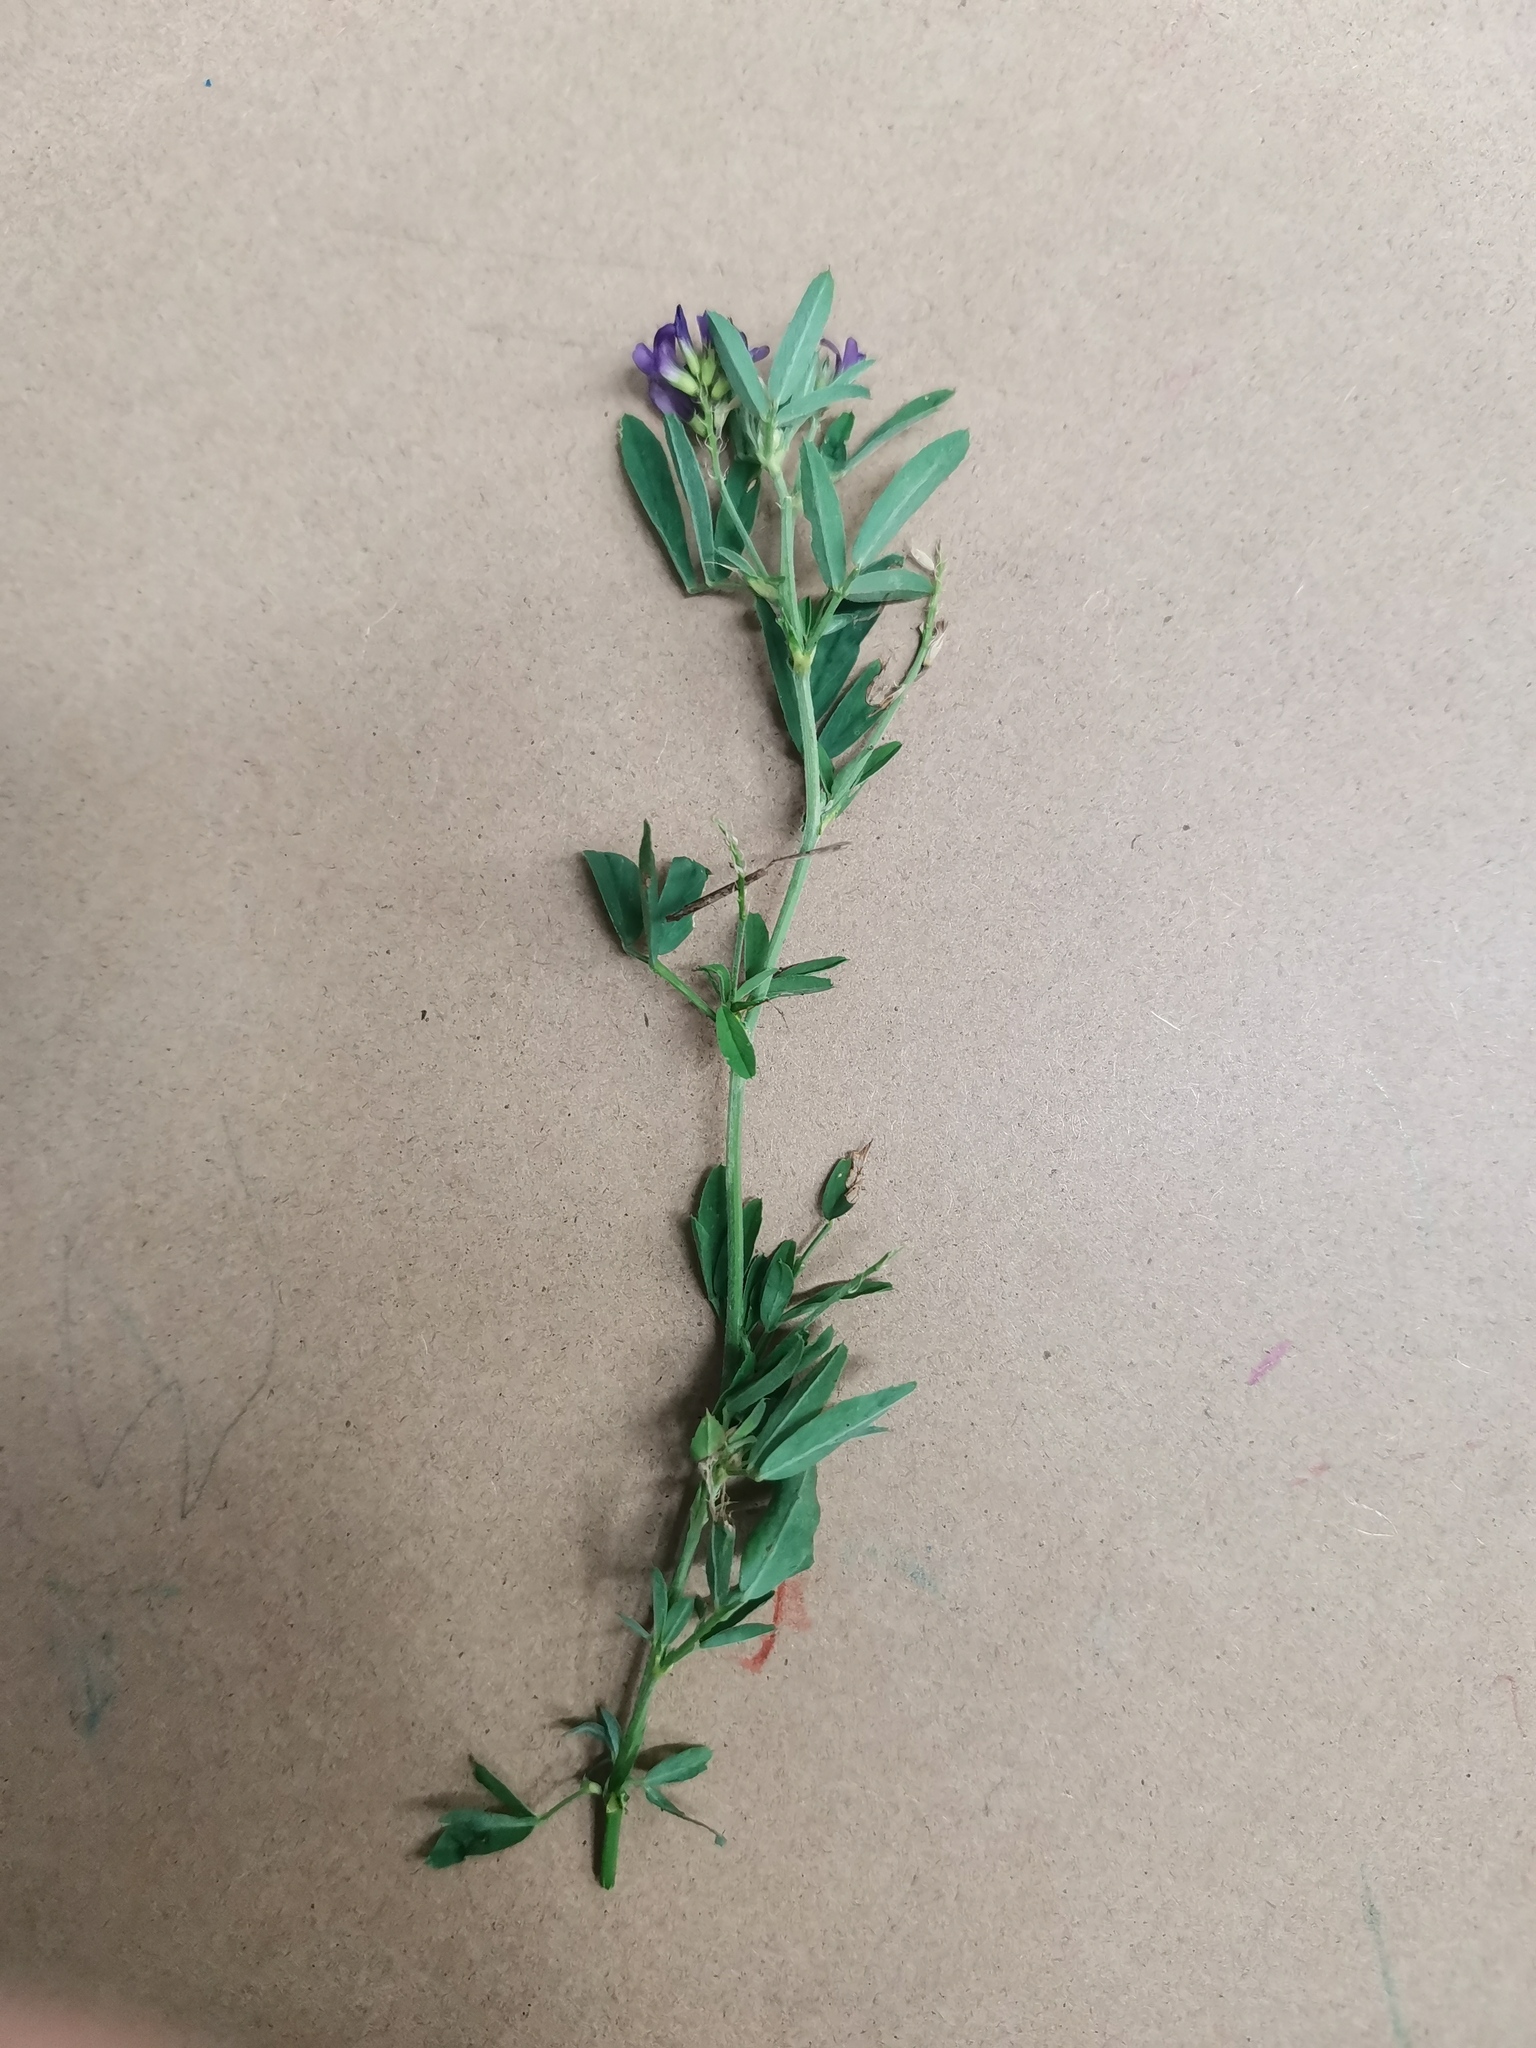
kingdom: Plantae
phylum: Tracheophyta
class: Magnoliopsida
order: Fabales
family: Fabaceae
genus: Medicago
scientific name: Medicago sativa
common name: Alfalfa
